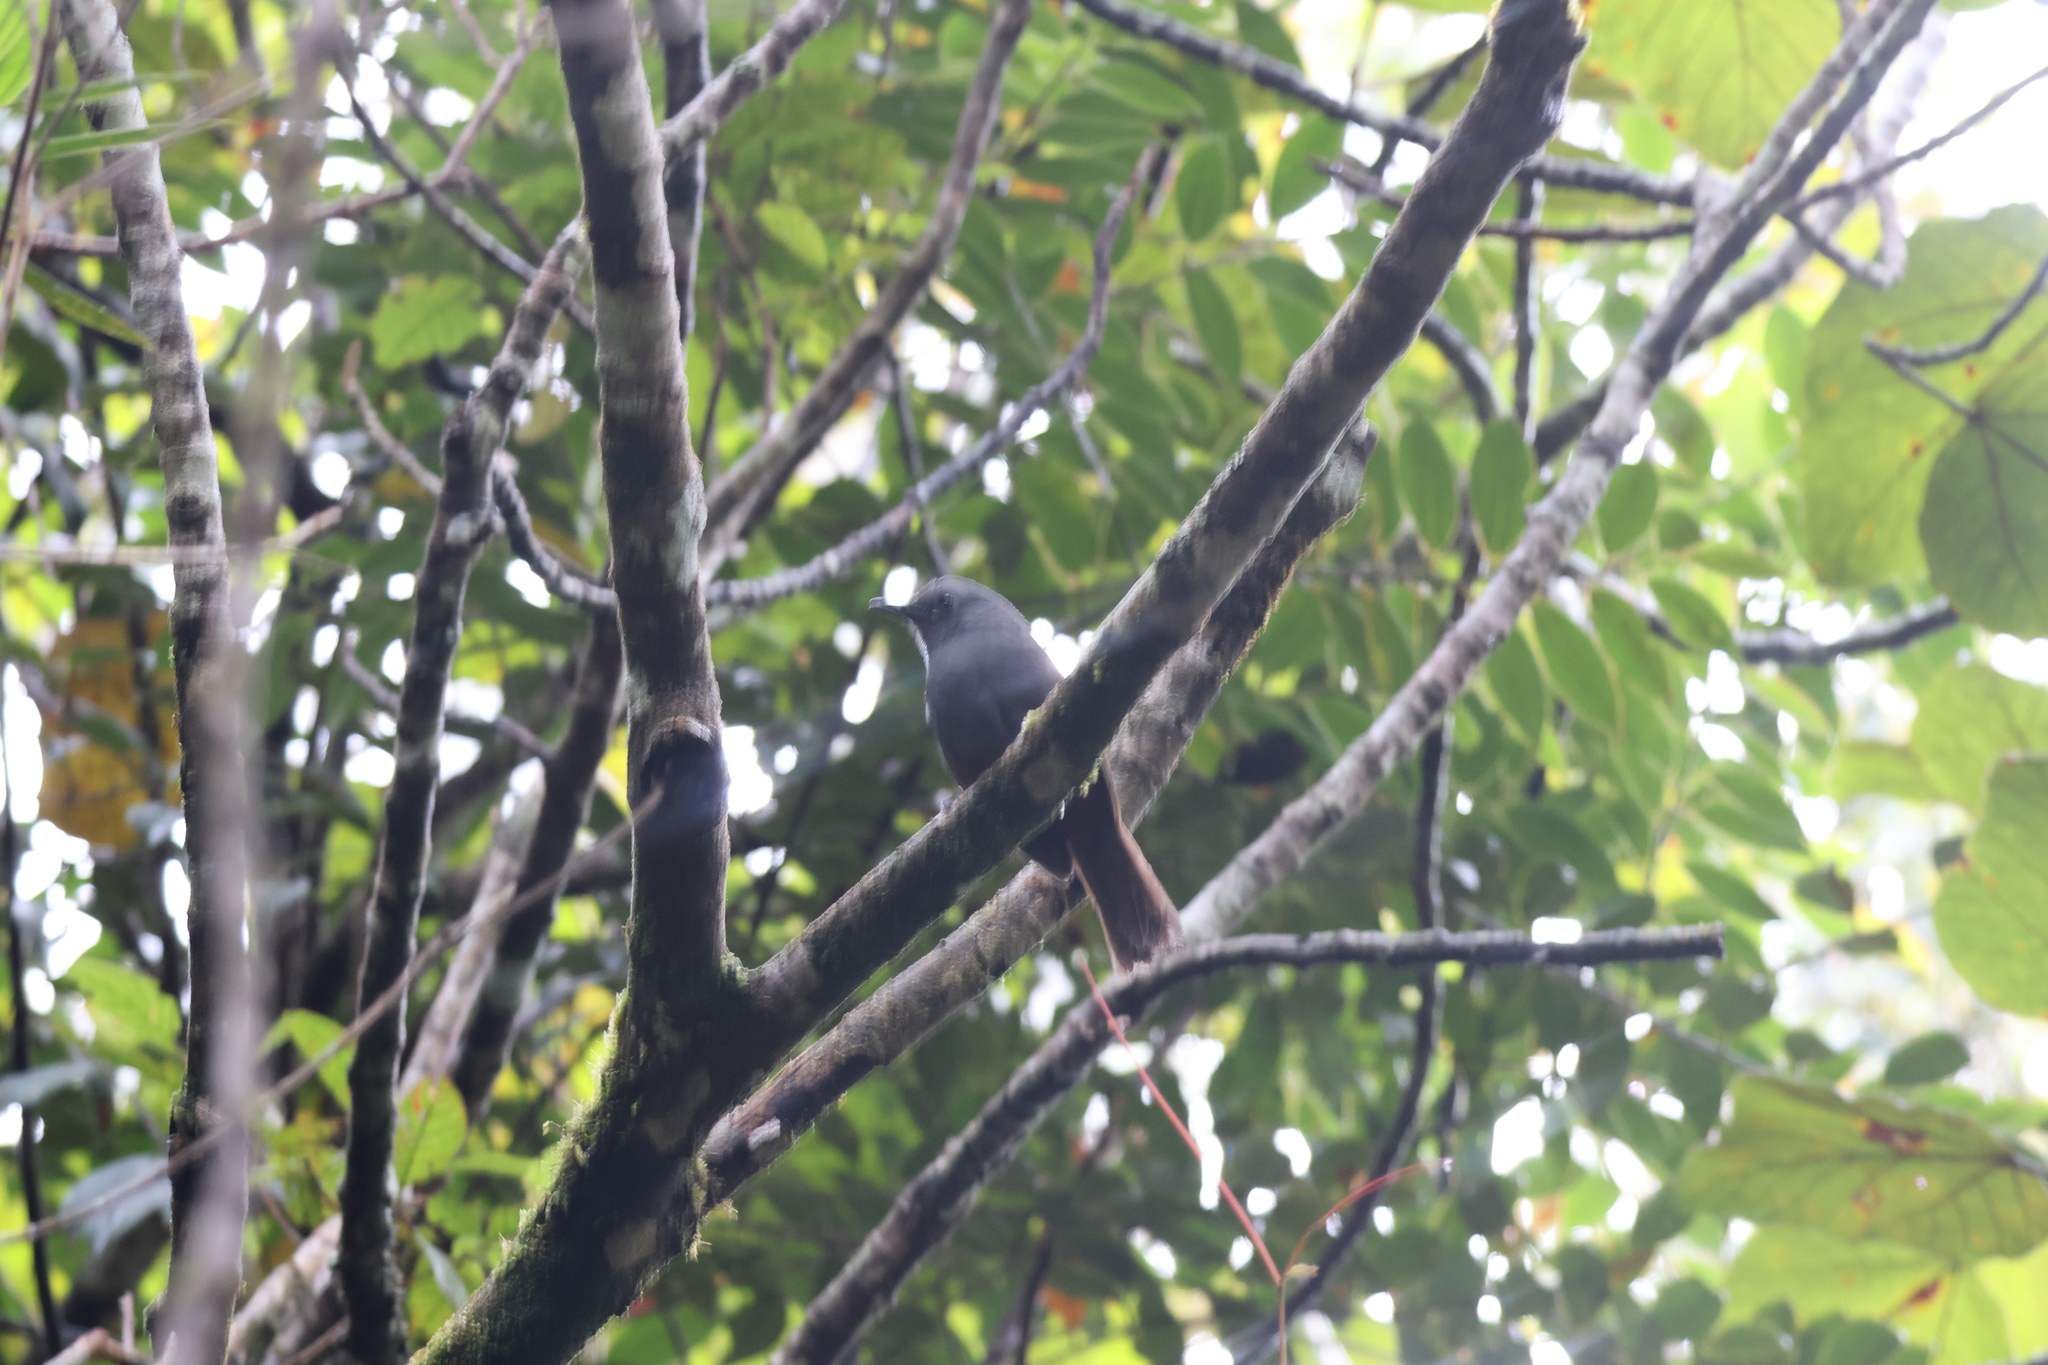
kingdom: Animalia
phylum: Chordata
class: Aves
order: Passeriformes
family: Leiothrichidae
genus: Garrulax
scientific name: Garrulax palliatus
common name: Sunda laughingthrush
